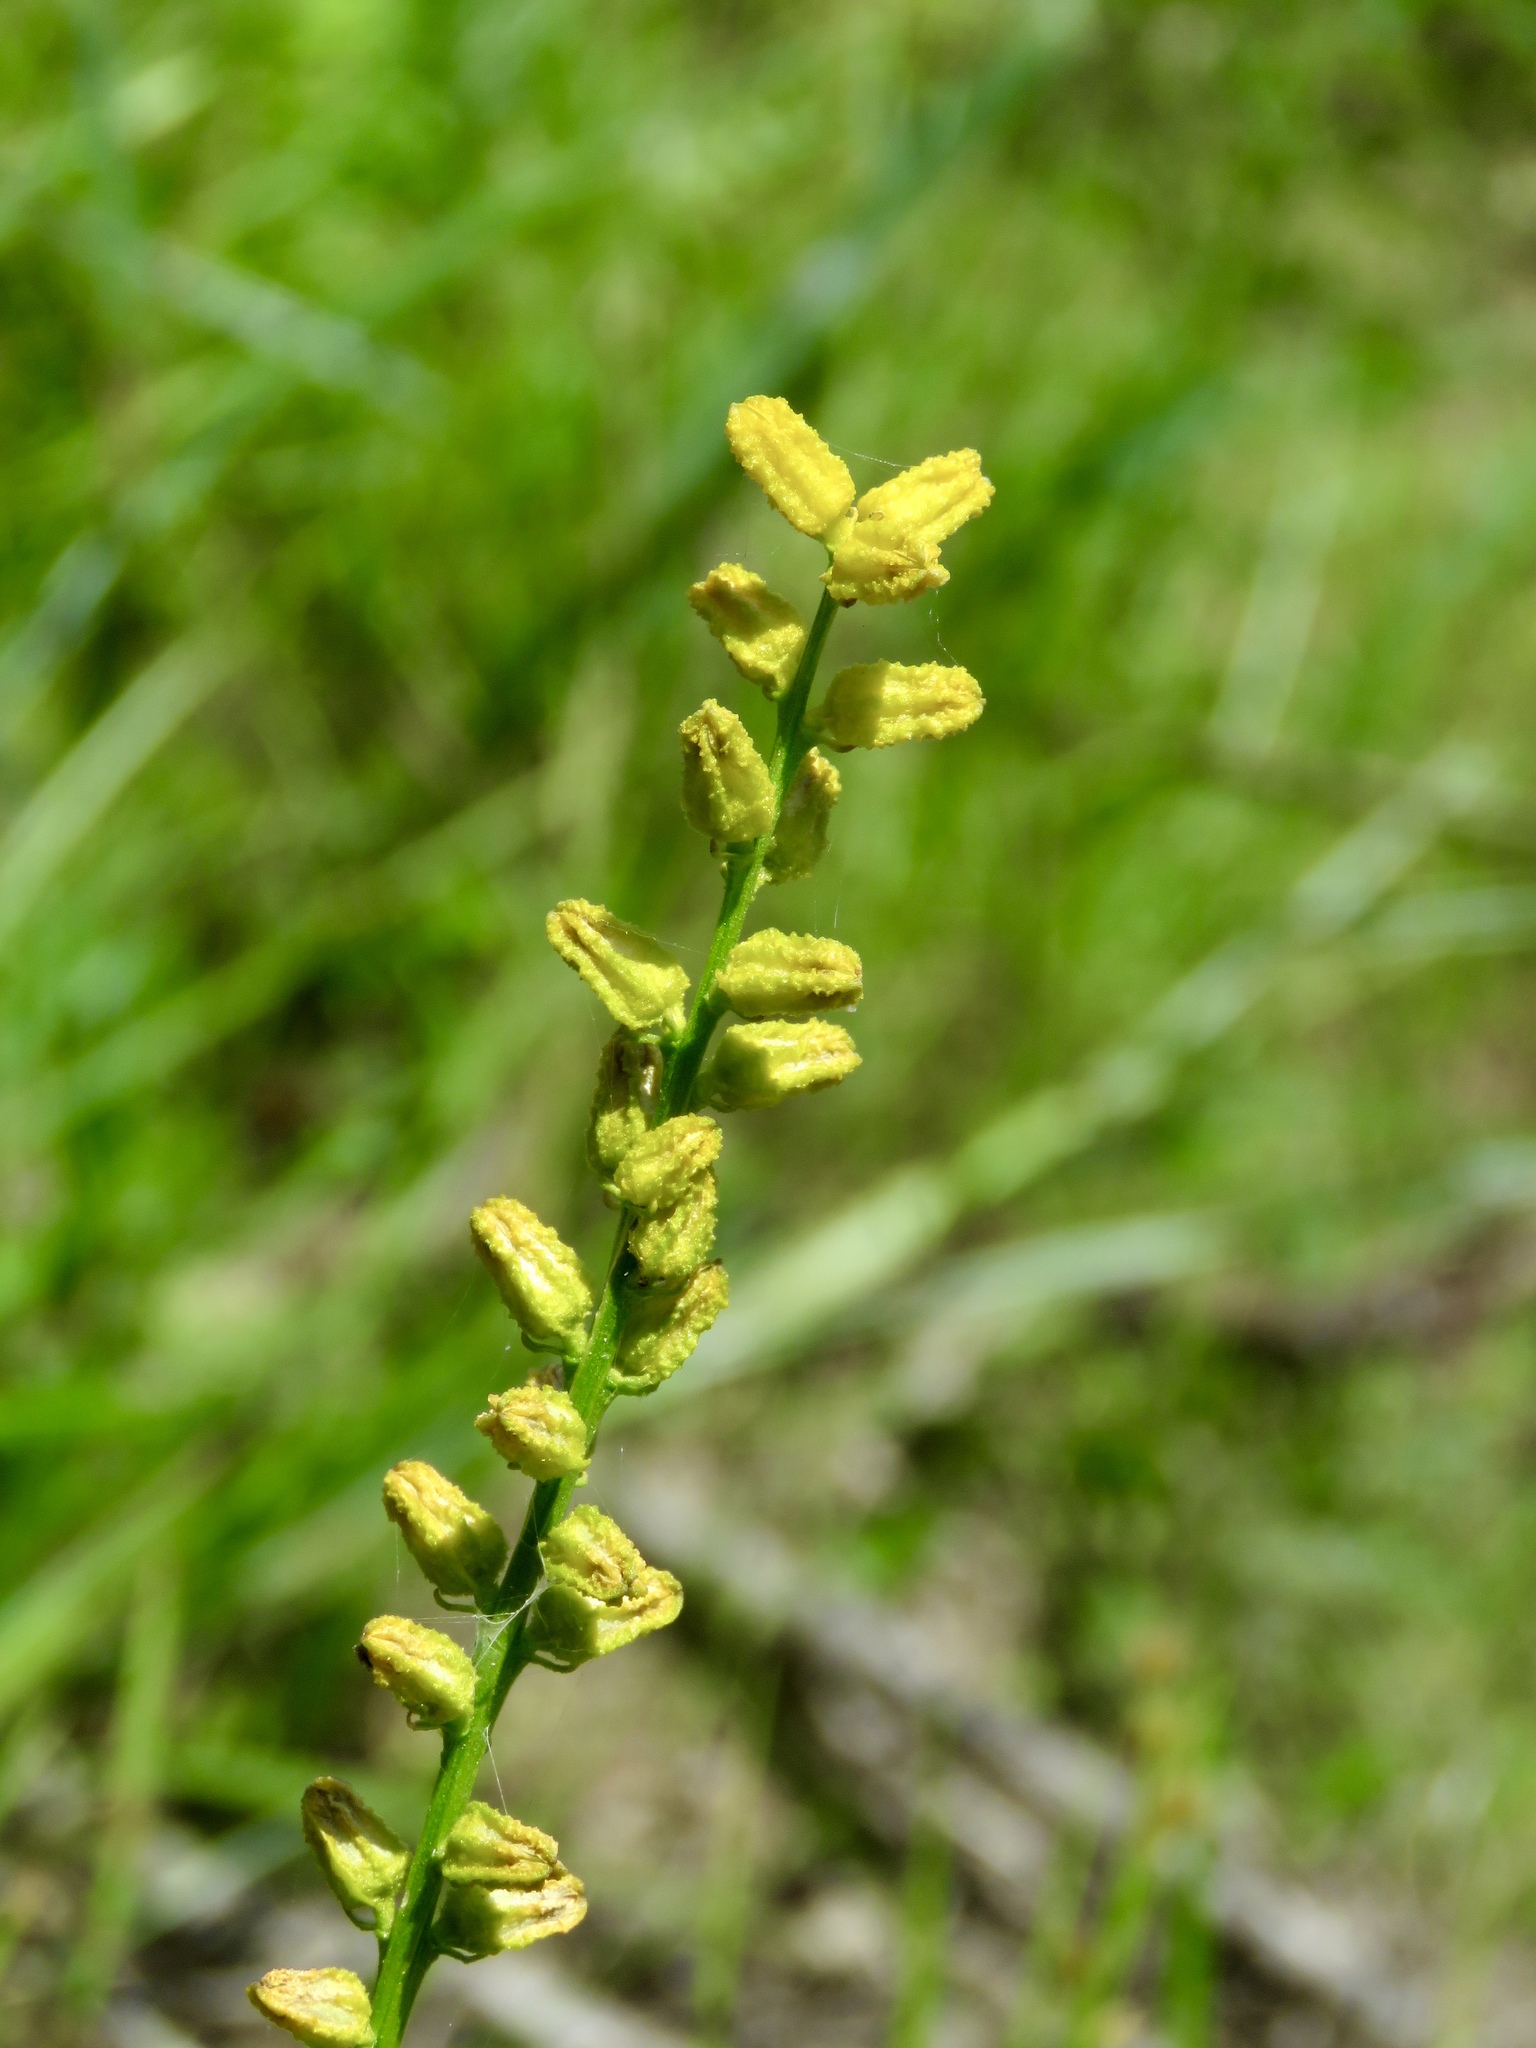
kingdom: Plantae
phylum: Tracheophyta
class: Liliopsida
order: Dioscoreales
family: Nartheciaceae
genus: Aletris
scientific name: Aletris aurea
